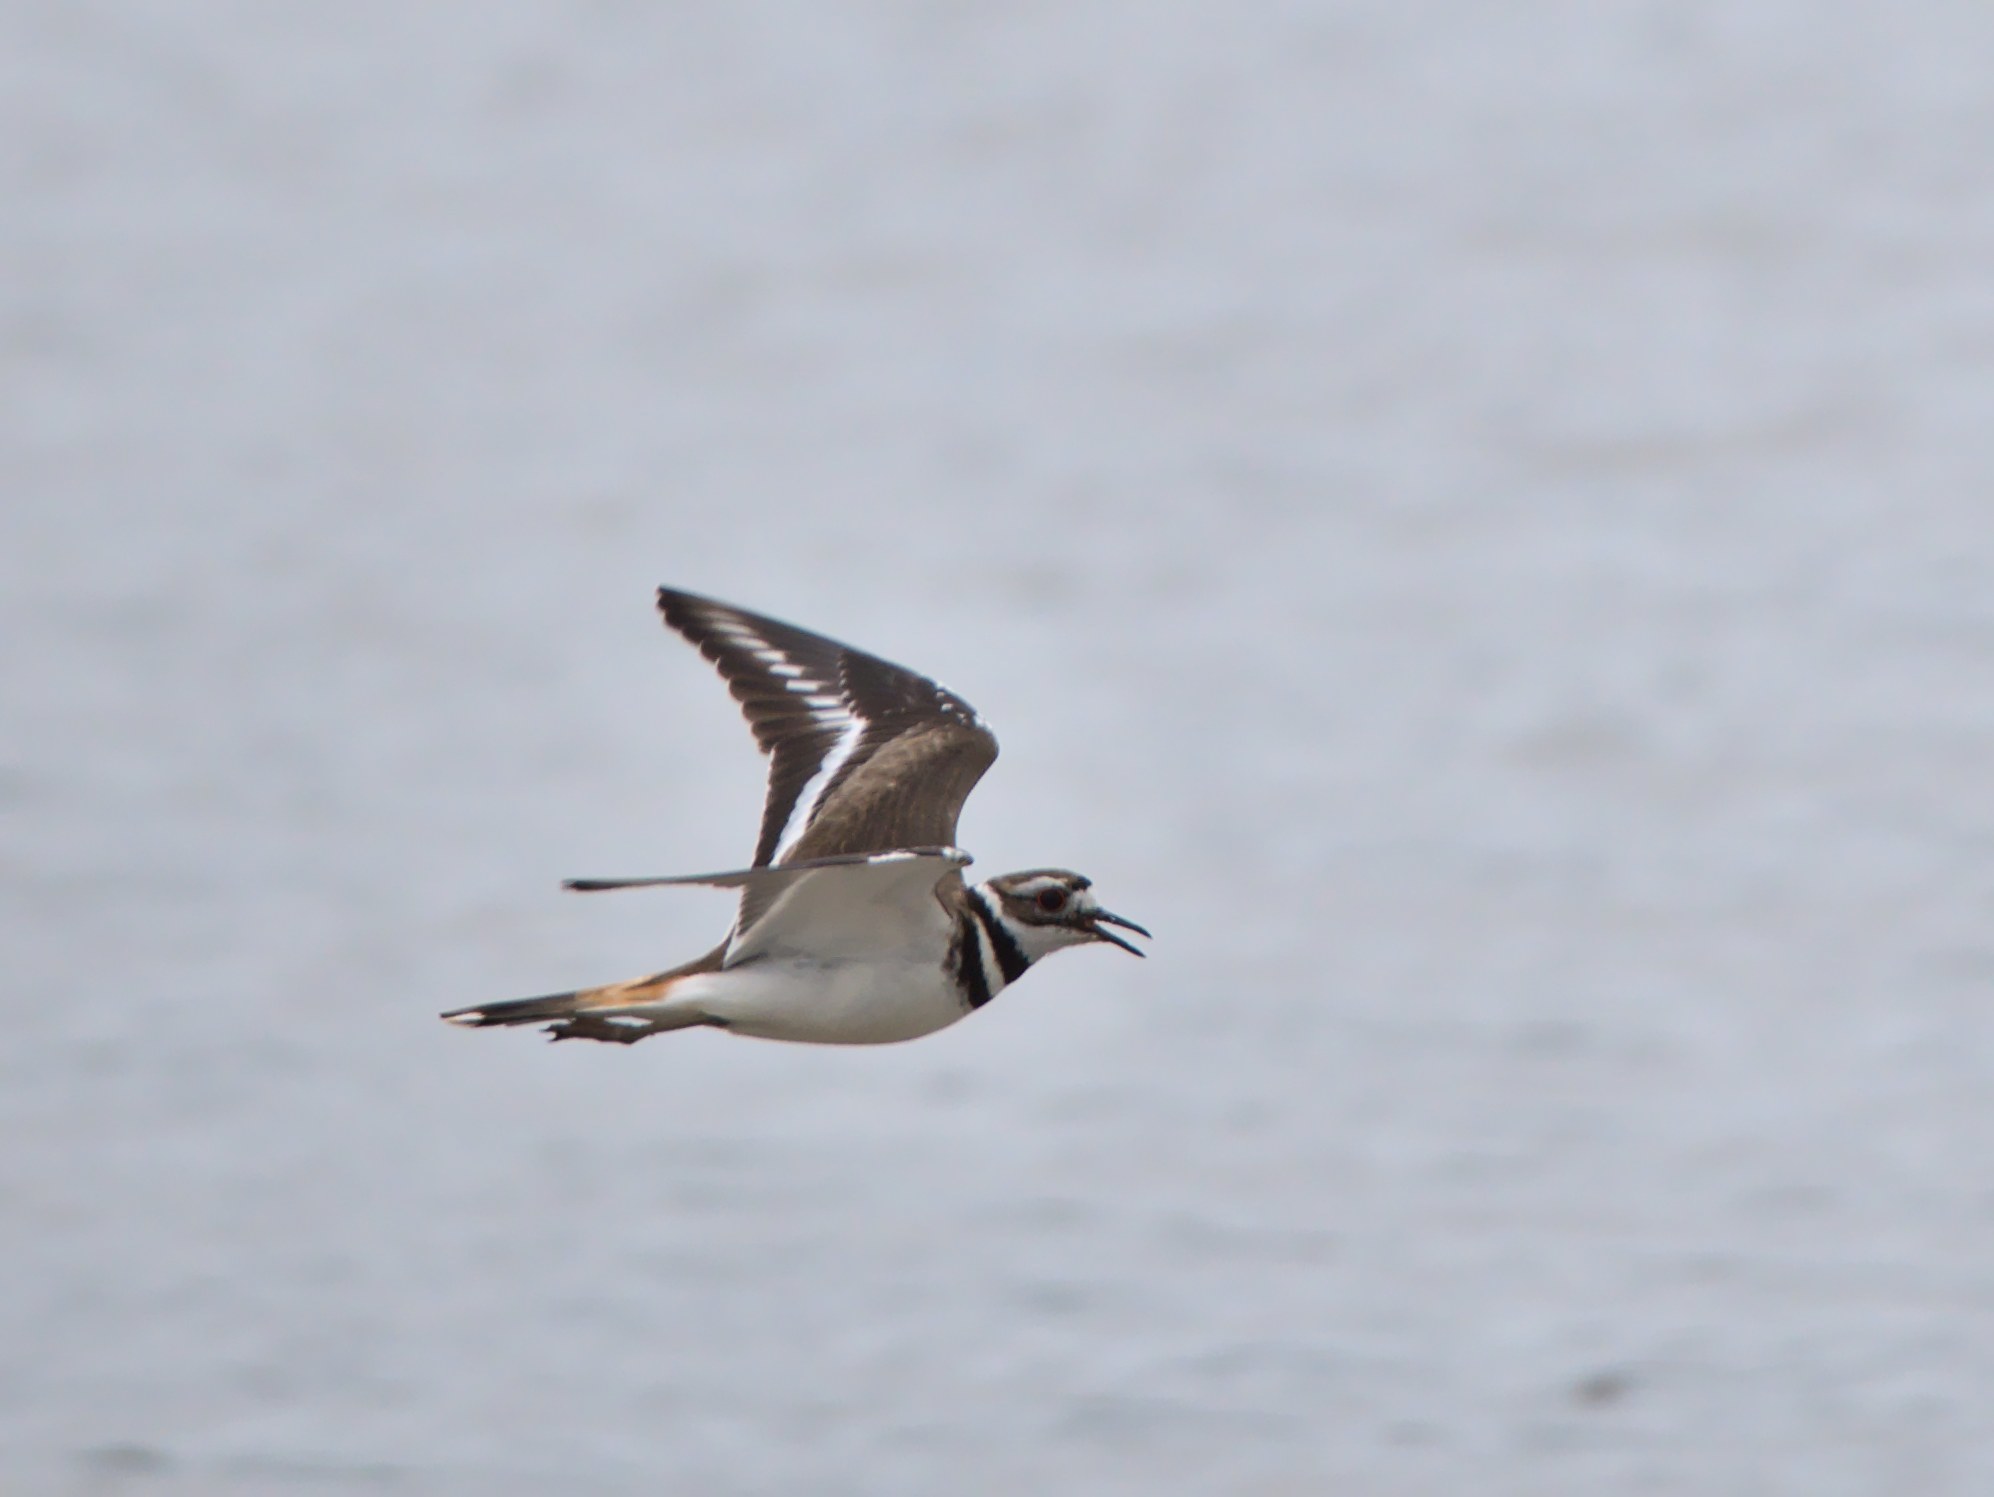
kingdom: Animalia
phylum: Chordata
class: Aves
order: Charadriiformes
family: Charadriidae
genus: Charadrius
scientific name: Charadrius vociferus
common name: Killdeer
